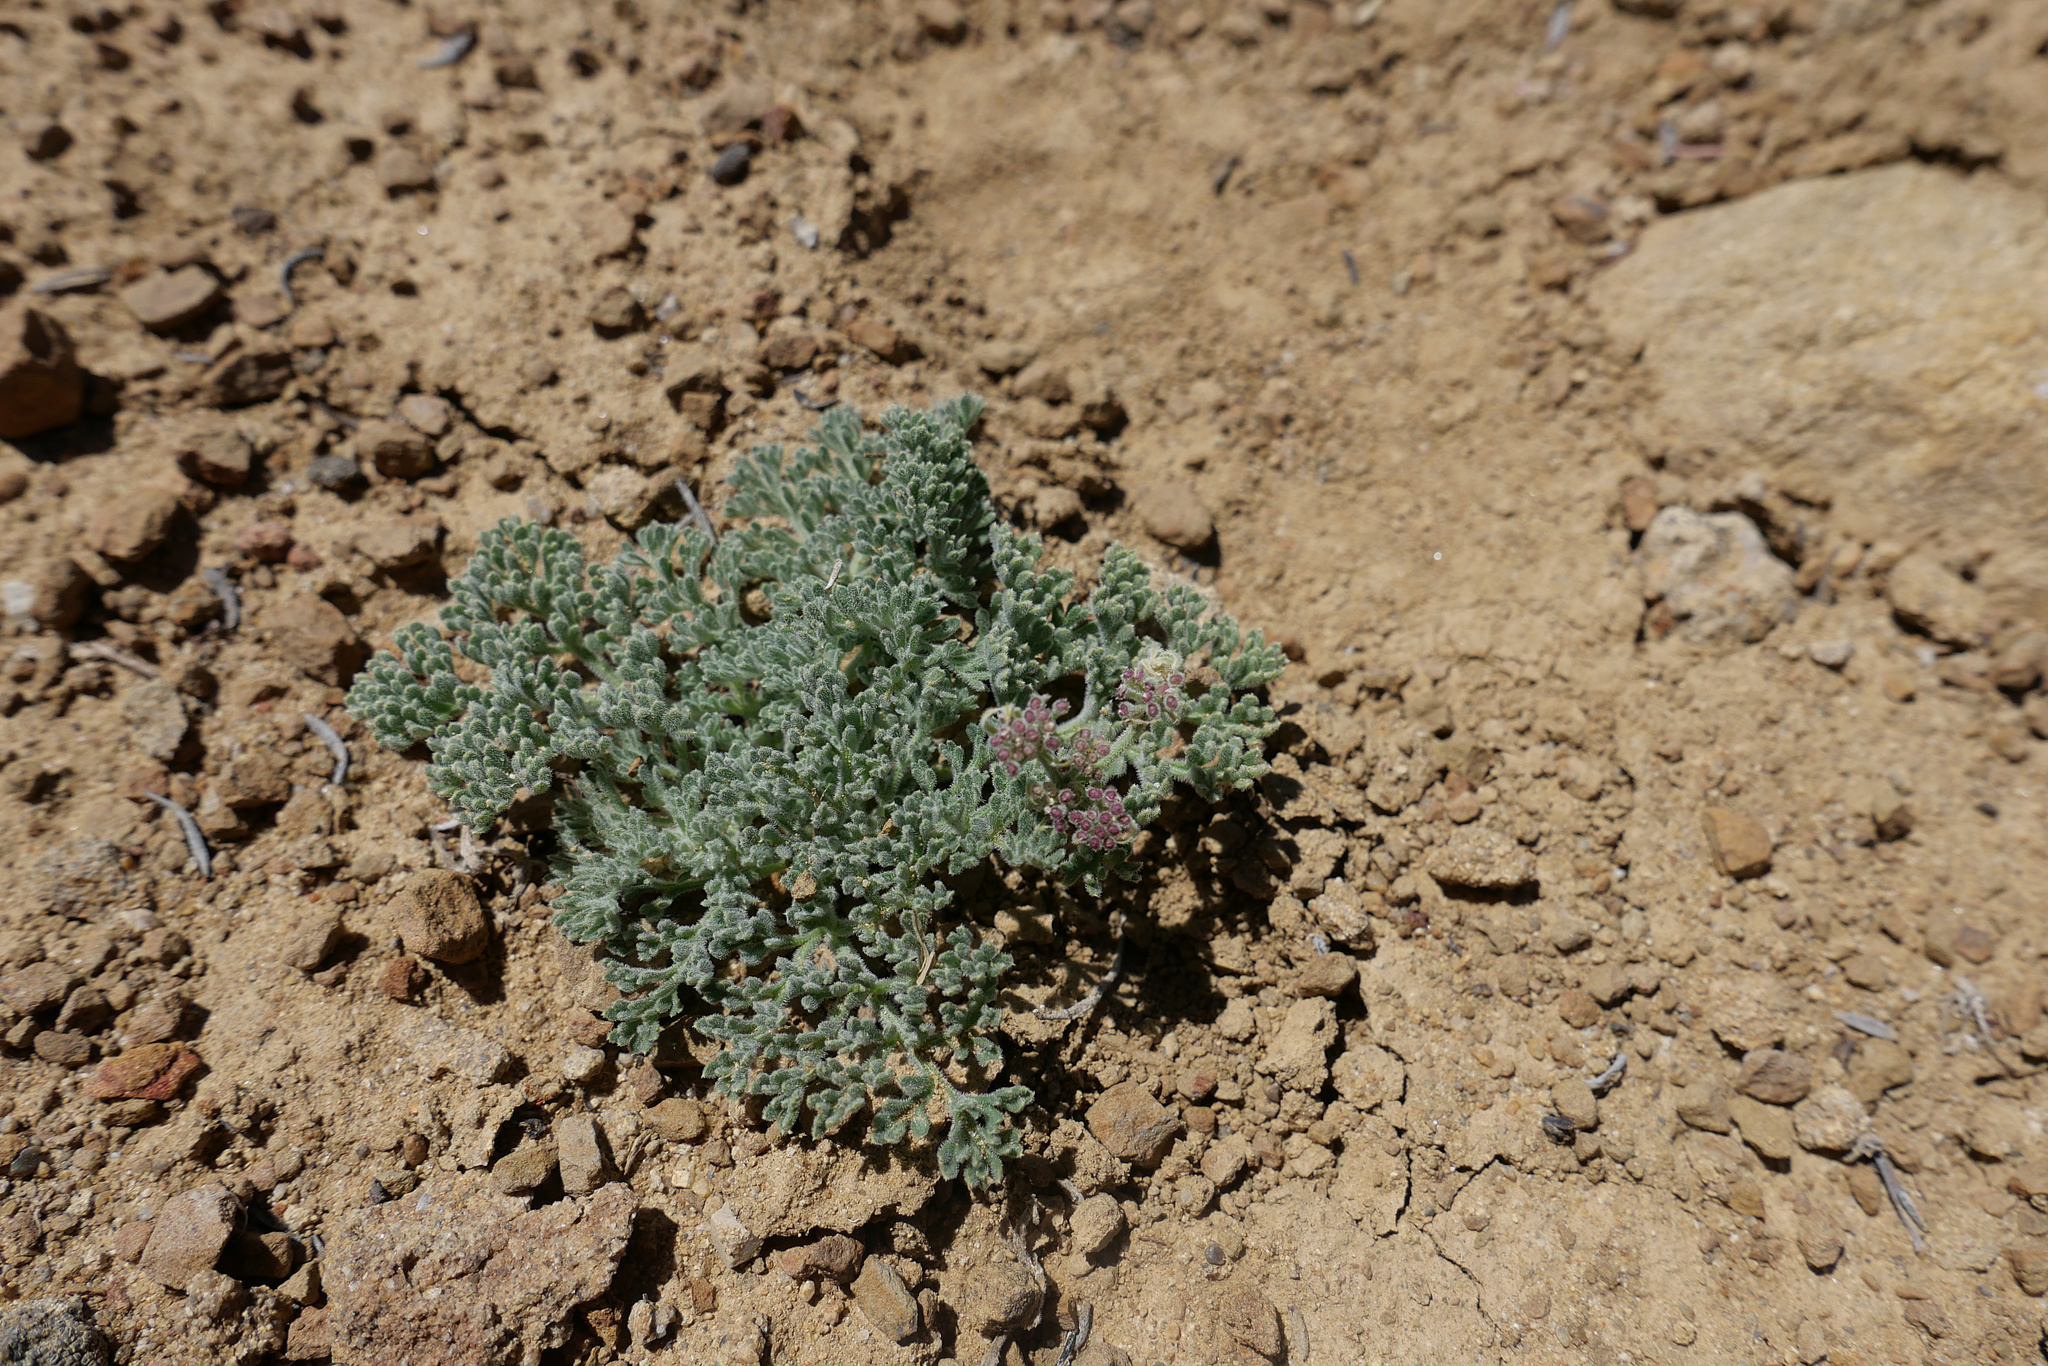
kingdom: Plantae
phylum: Tracheophyta
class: Magnoliopsida
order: Apiales
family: Apiaceae
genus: Lomatium
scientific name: Lomatium mohavense
